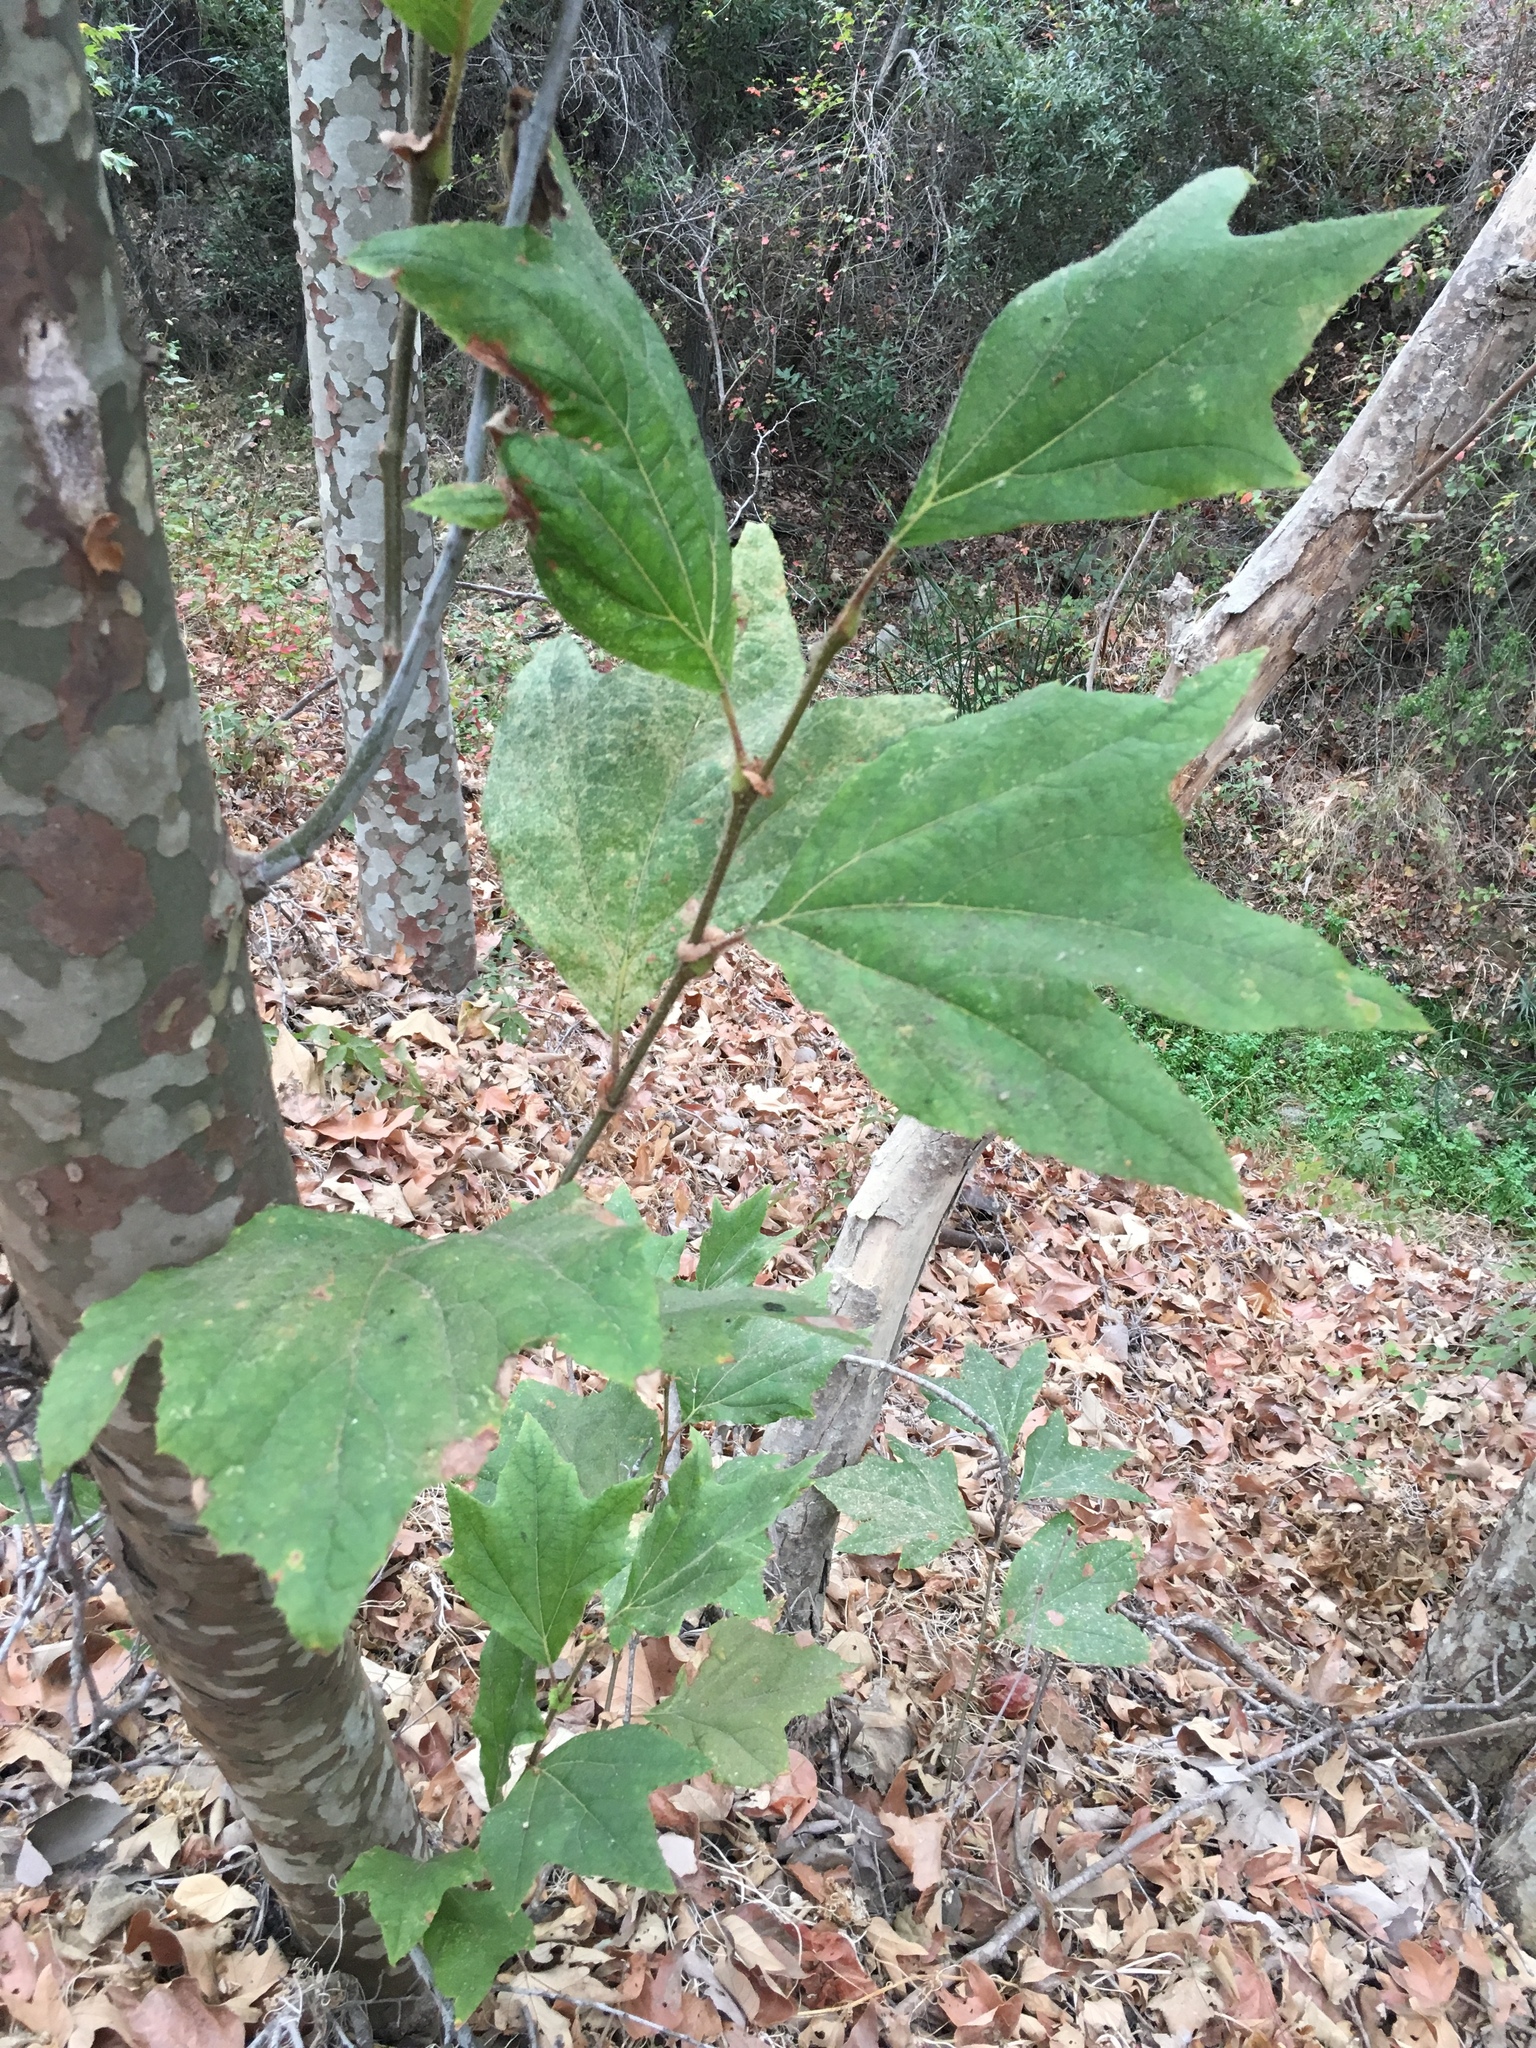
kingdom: Plantae
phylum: Tracheophyta
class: Magnoliopsida
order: Proteales
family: Platanaceae
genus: Platanus
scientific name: Platanus racemosa
